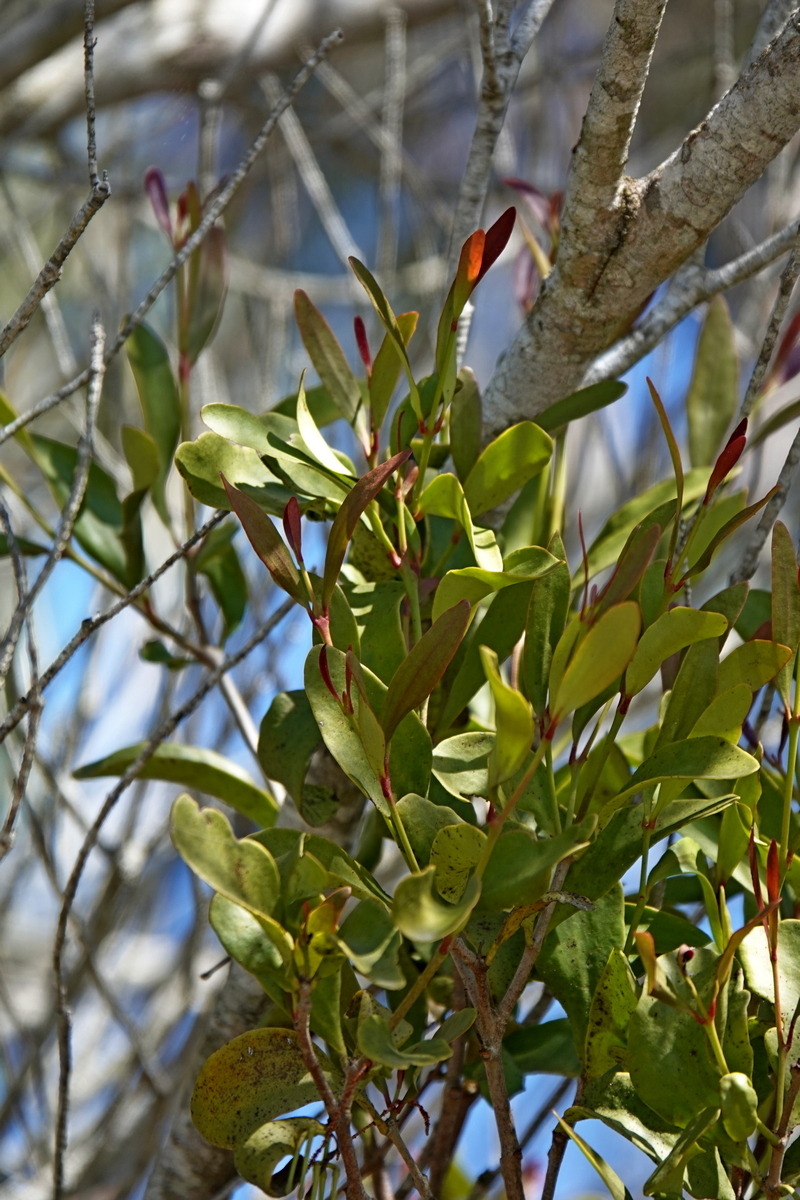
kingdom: Plantae
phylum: Tracheophyta
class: Magnoliopsida
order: Santalales
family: Loranthaceae
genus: Amyema
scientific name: Amyema congener
